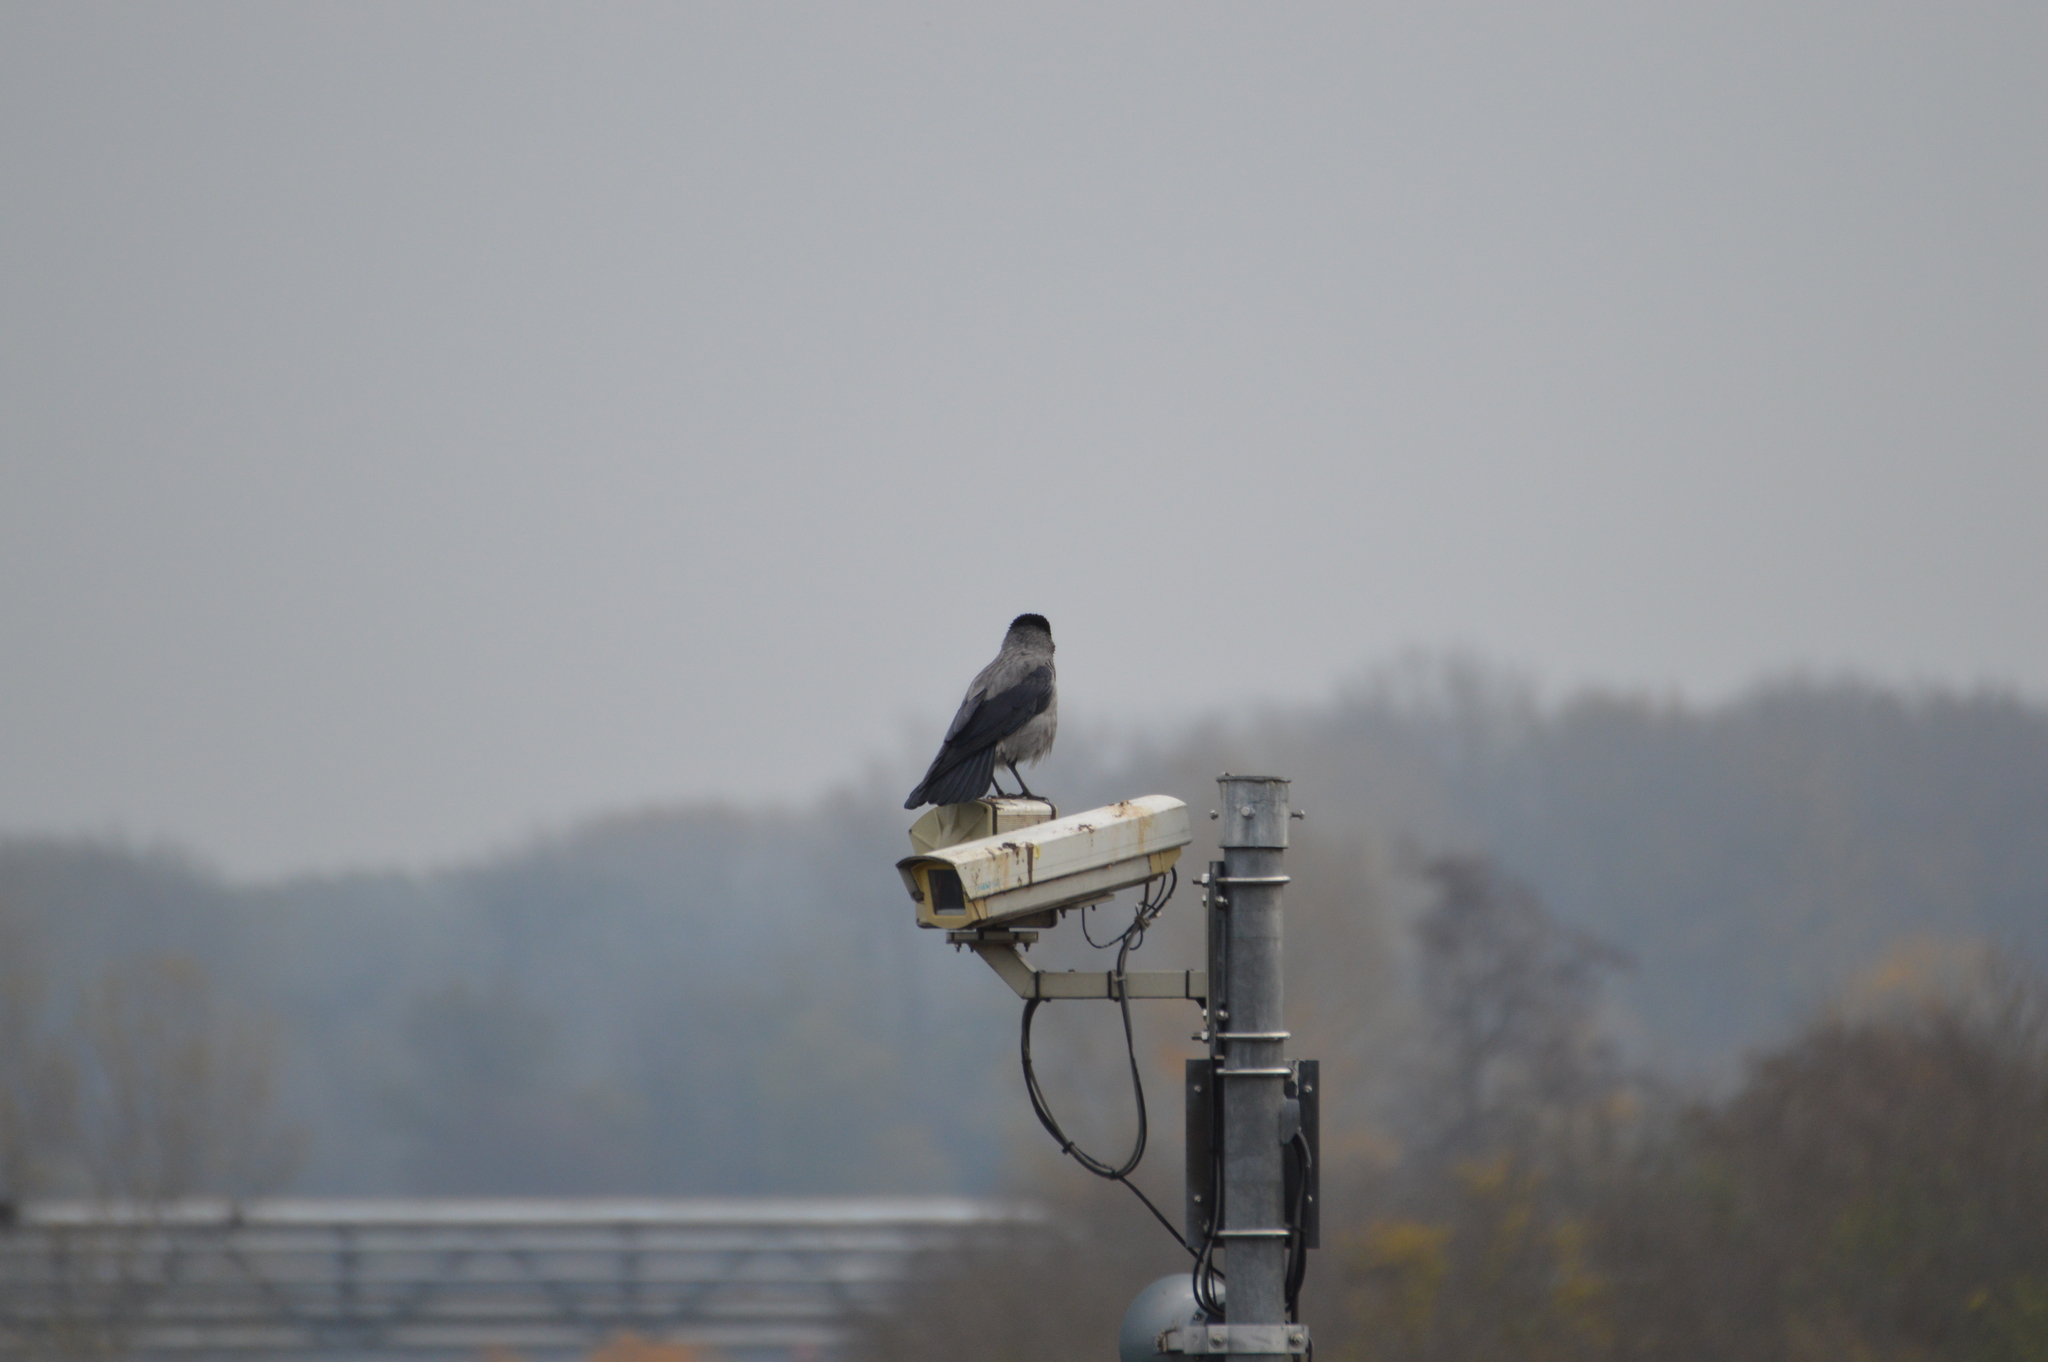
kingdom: Animalia
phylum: Chordata
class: Aves
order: Passeriformes
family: Corvidae
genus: Corvus
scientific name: Corvus cornix
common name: Hooded crow
